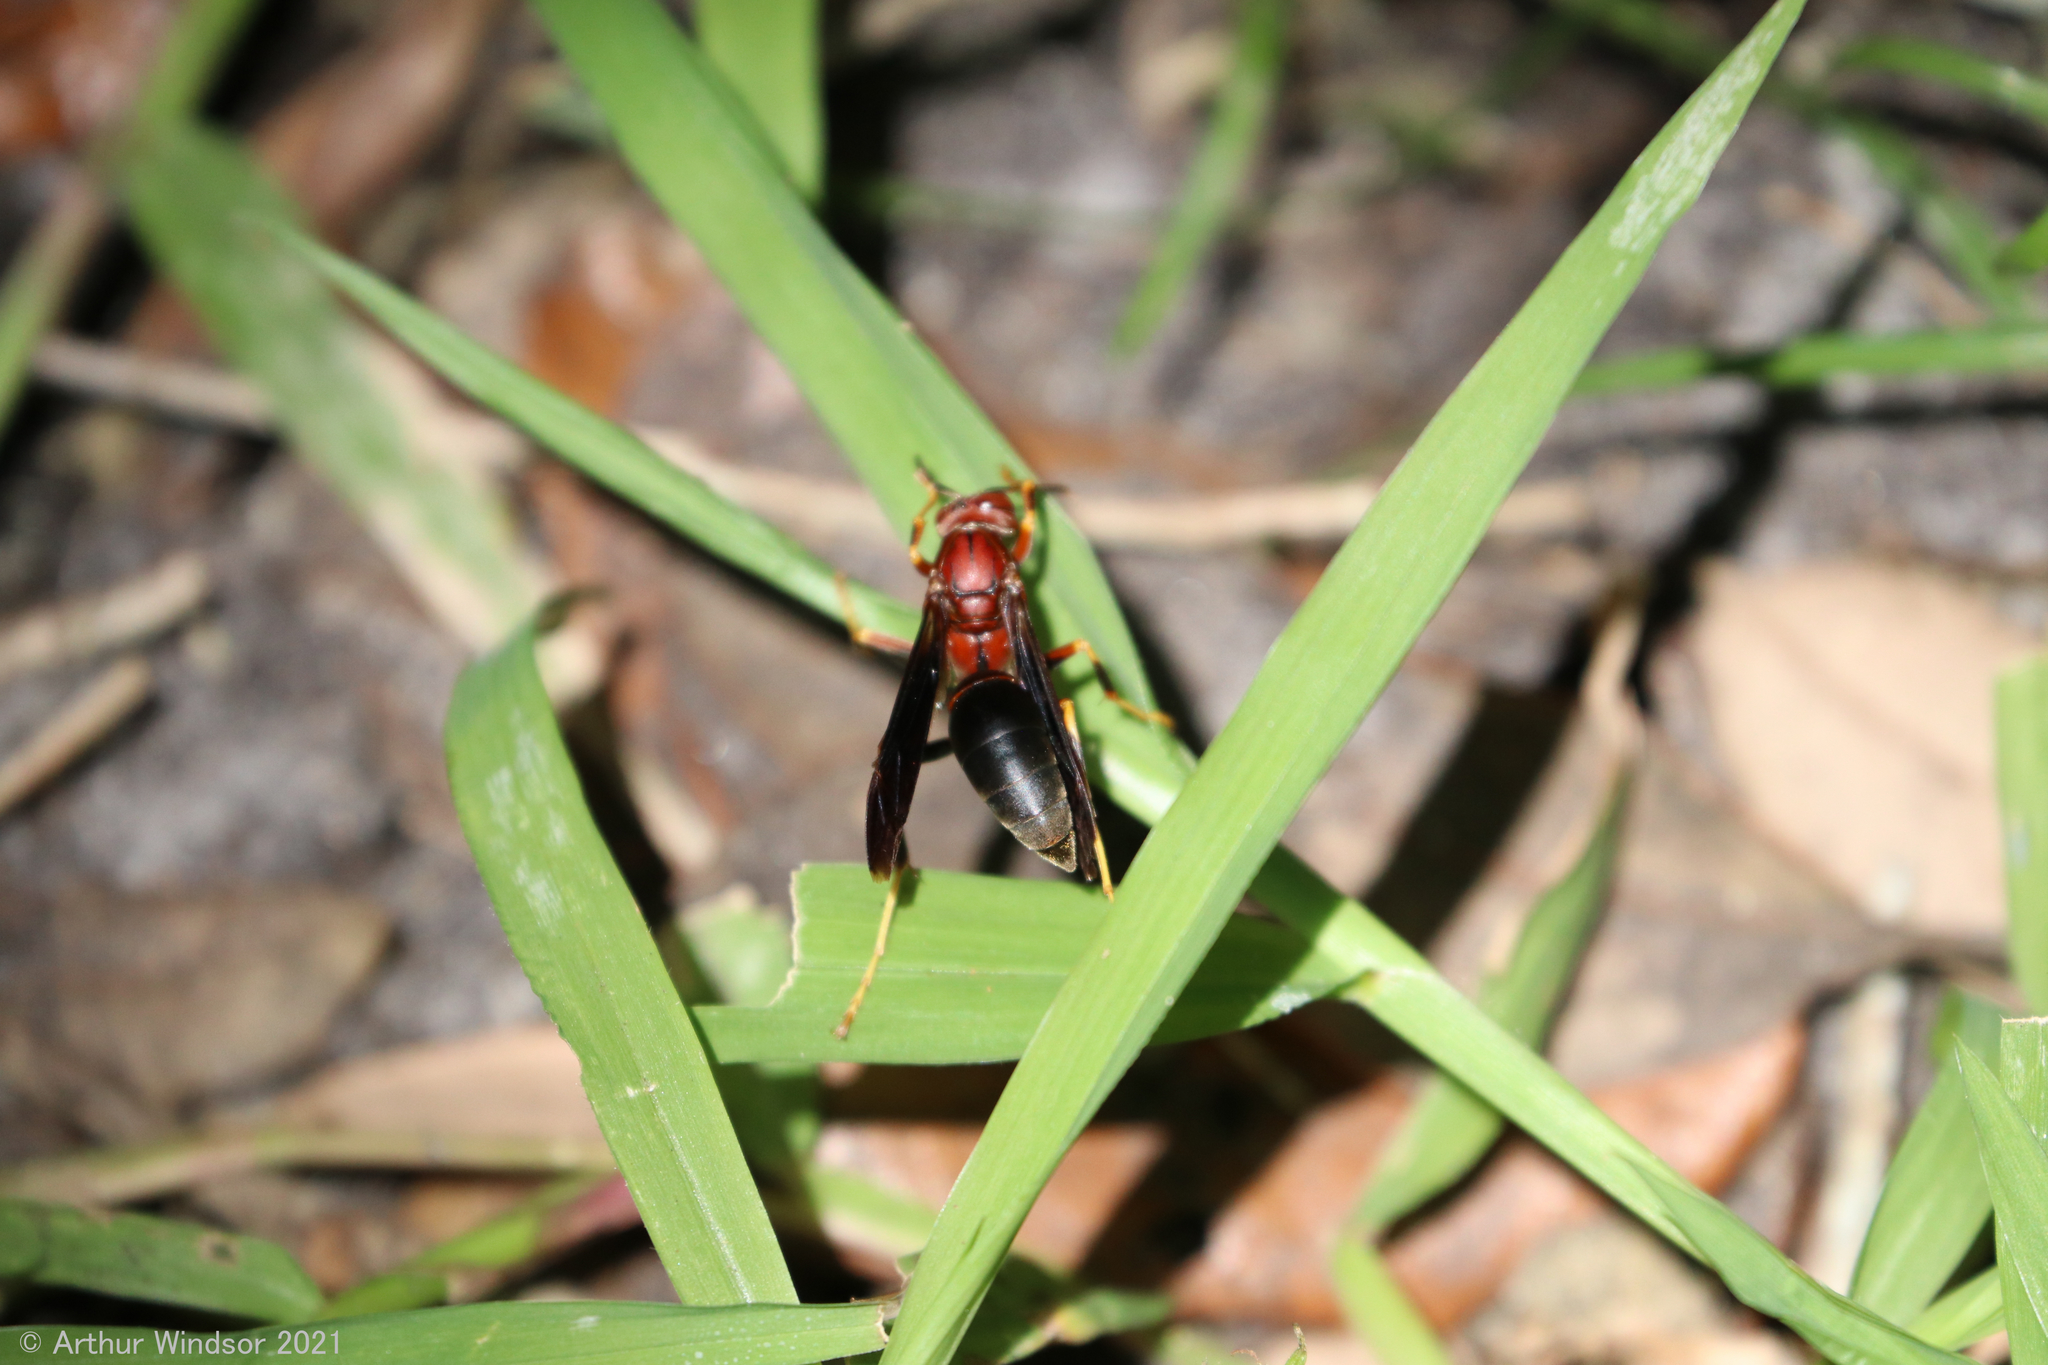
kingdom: Animalia
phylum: Arthropoda
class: Insecta
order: Hymenoptera
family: Eumenidae
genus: Polistes
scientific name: Polistes metricus
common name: Metric paper wasp
